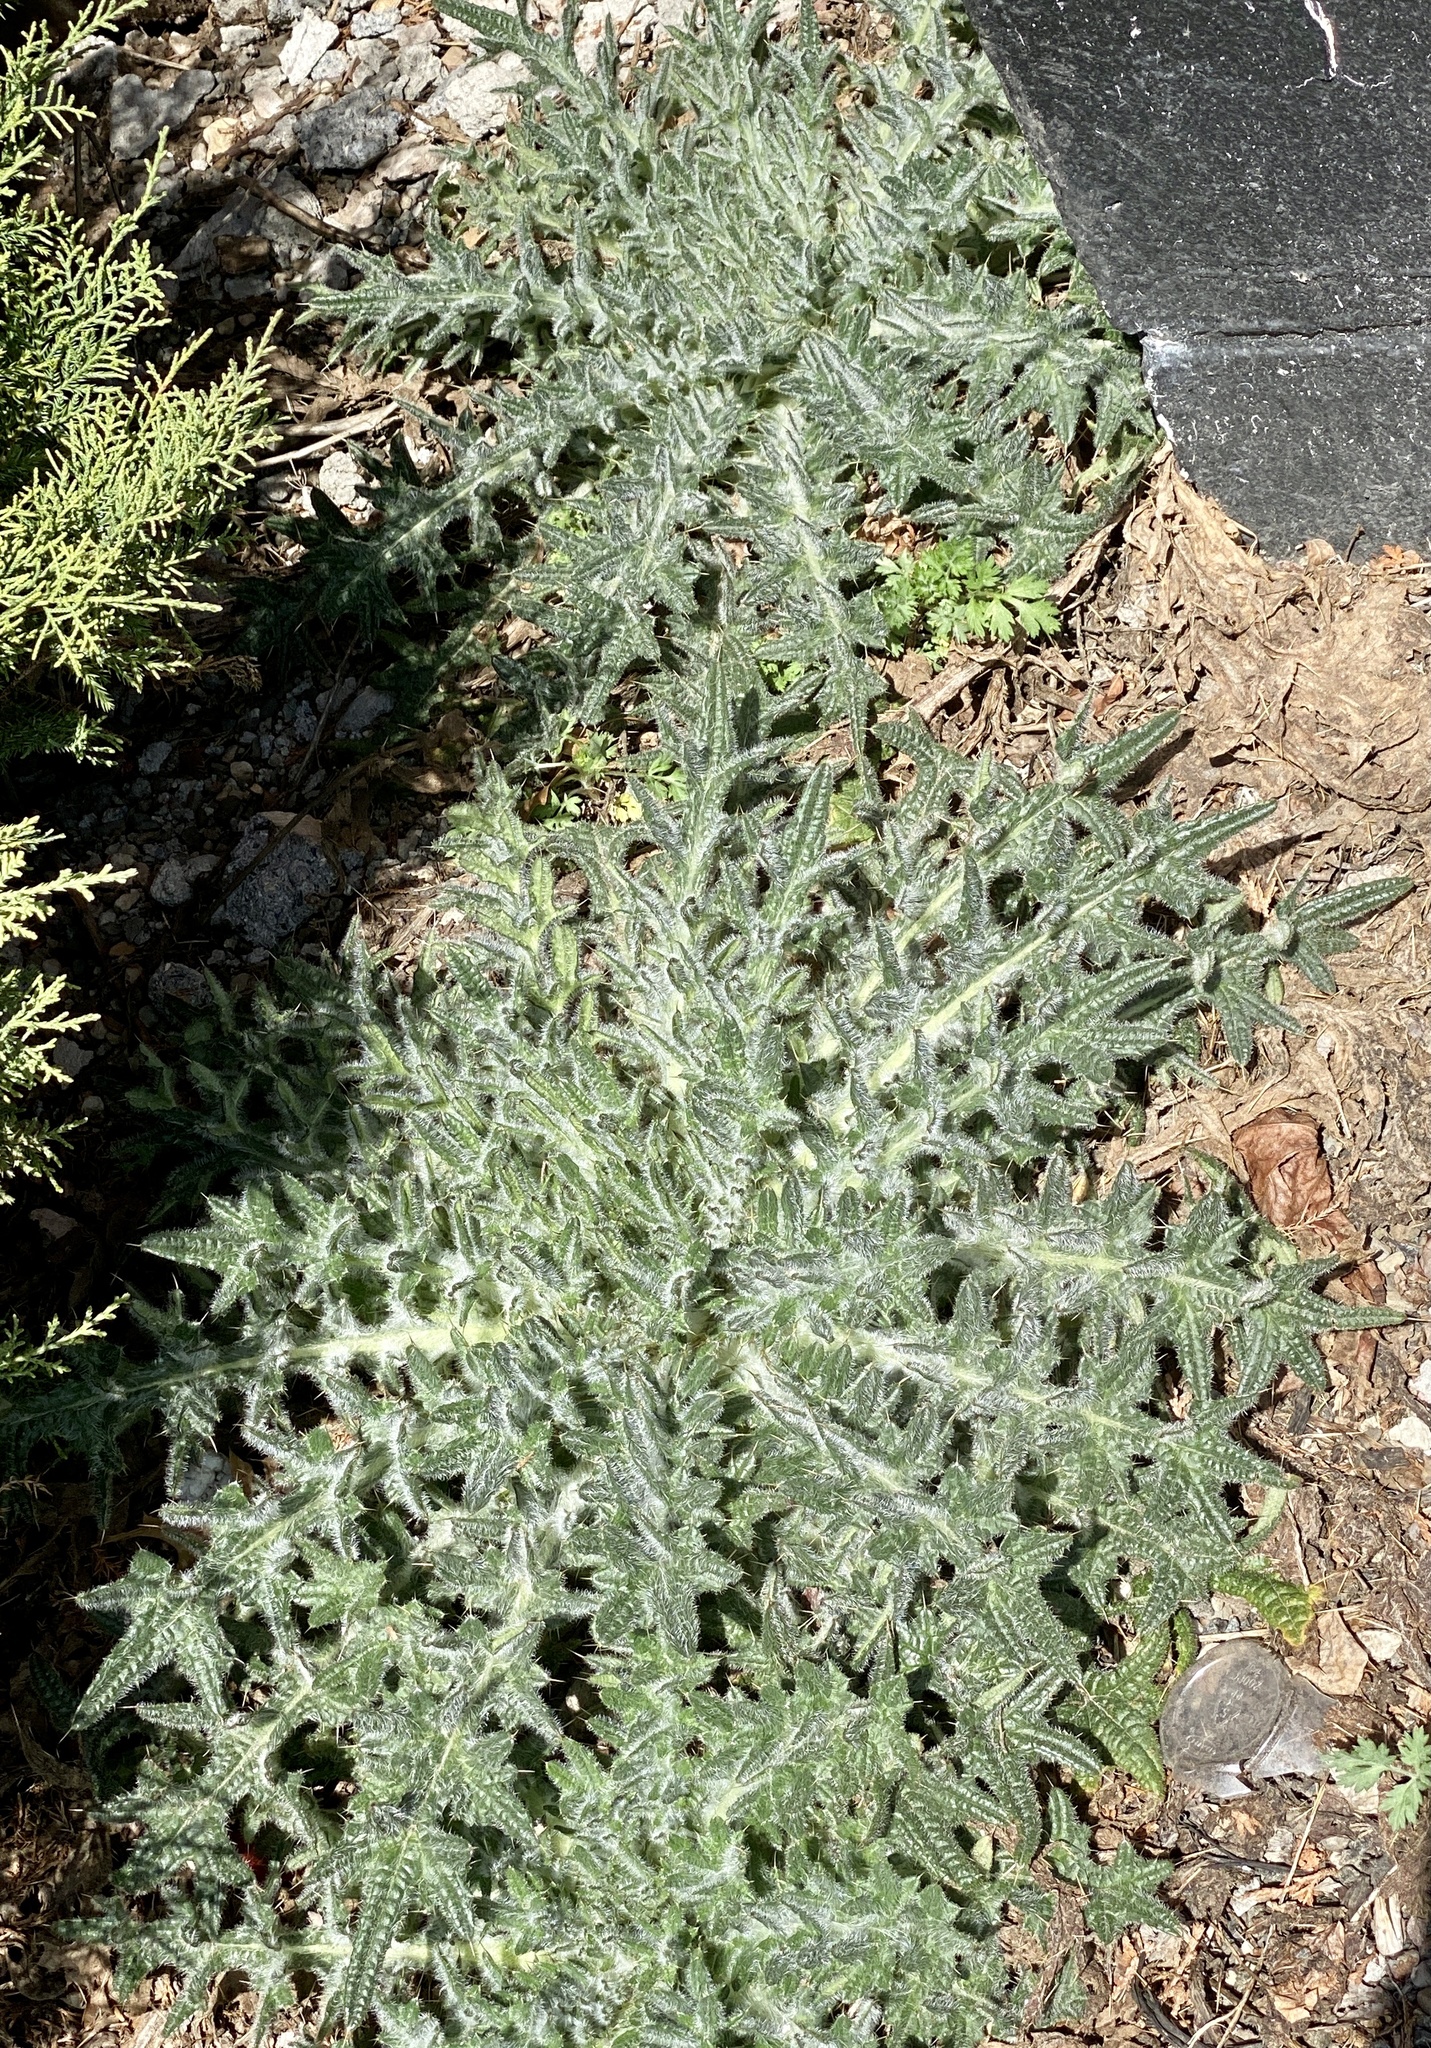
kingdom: Plantae
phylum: Tracheophyta
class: Magnoliopsida
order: Asterales
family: Asteraceae
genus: Cirsium
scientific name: Cirsium vulgare
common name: Bull thistle
